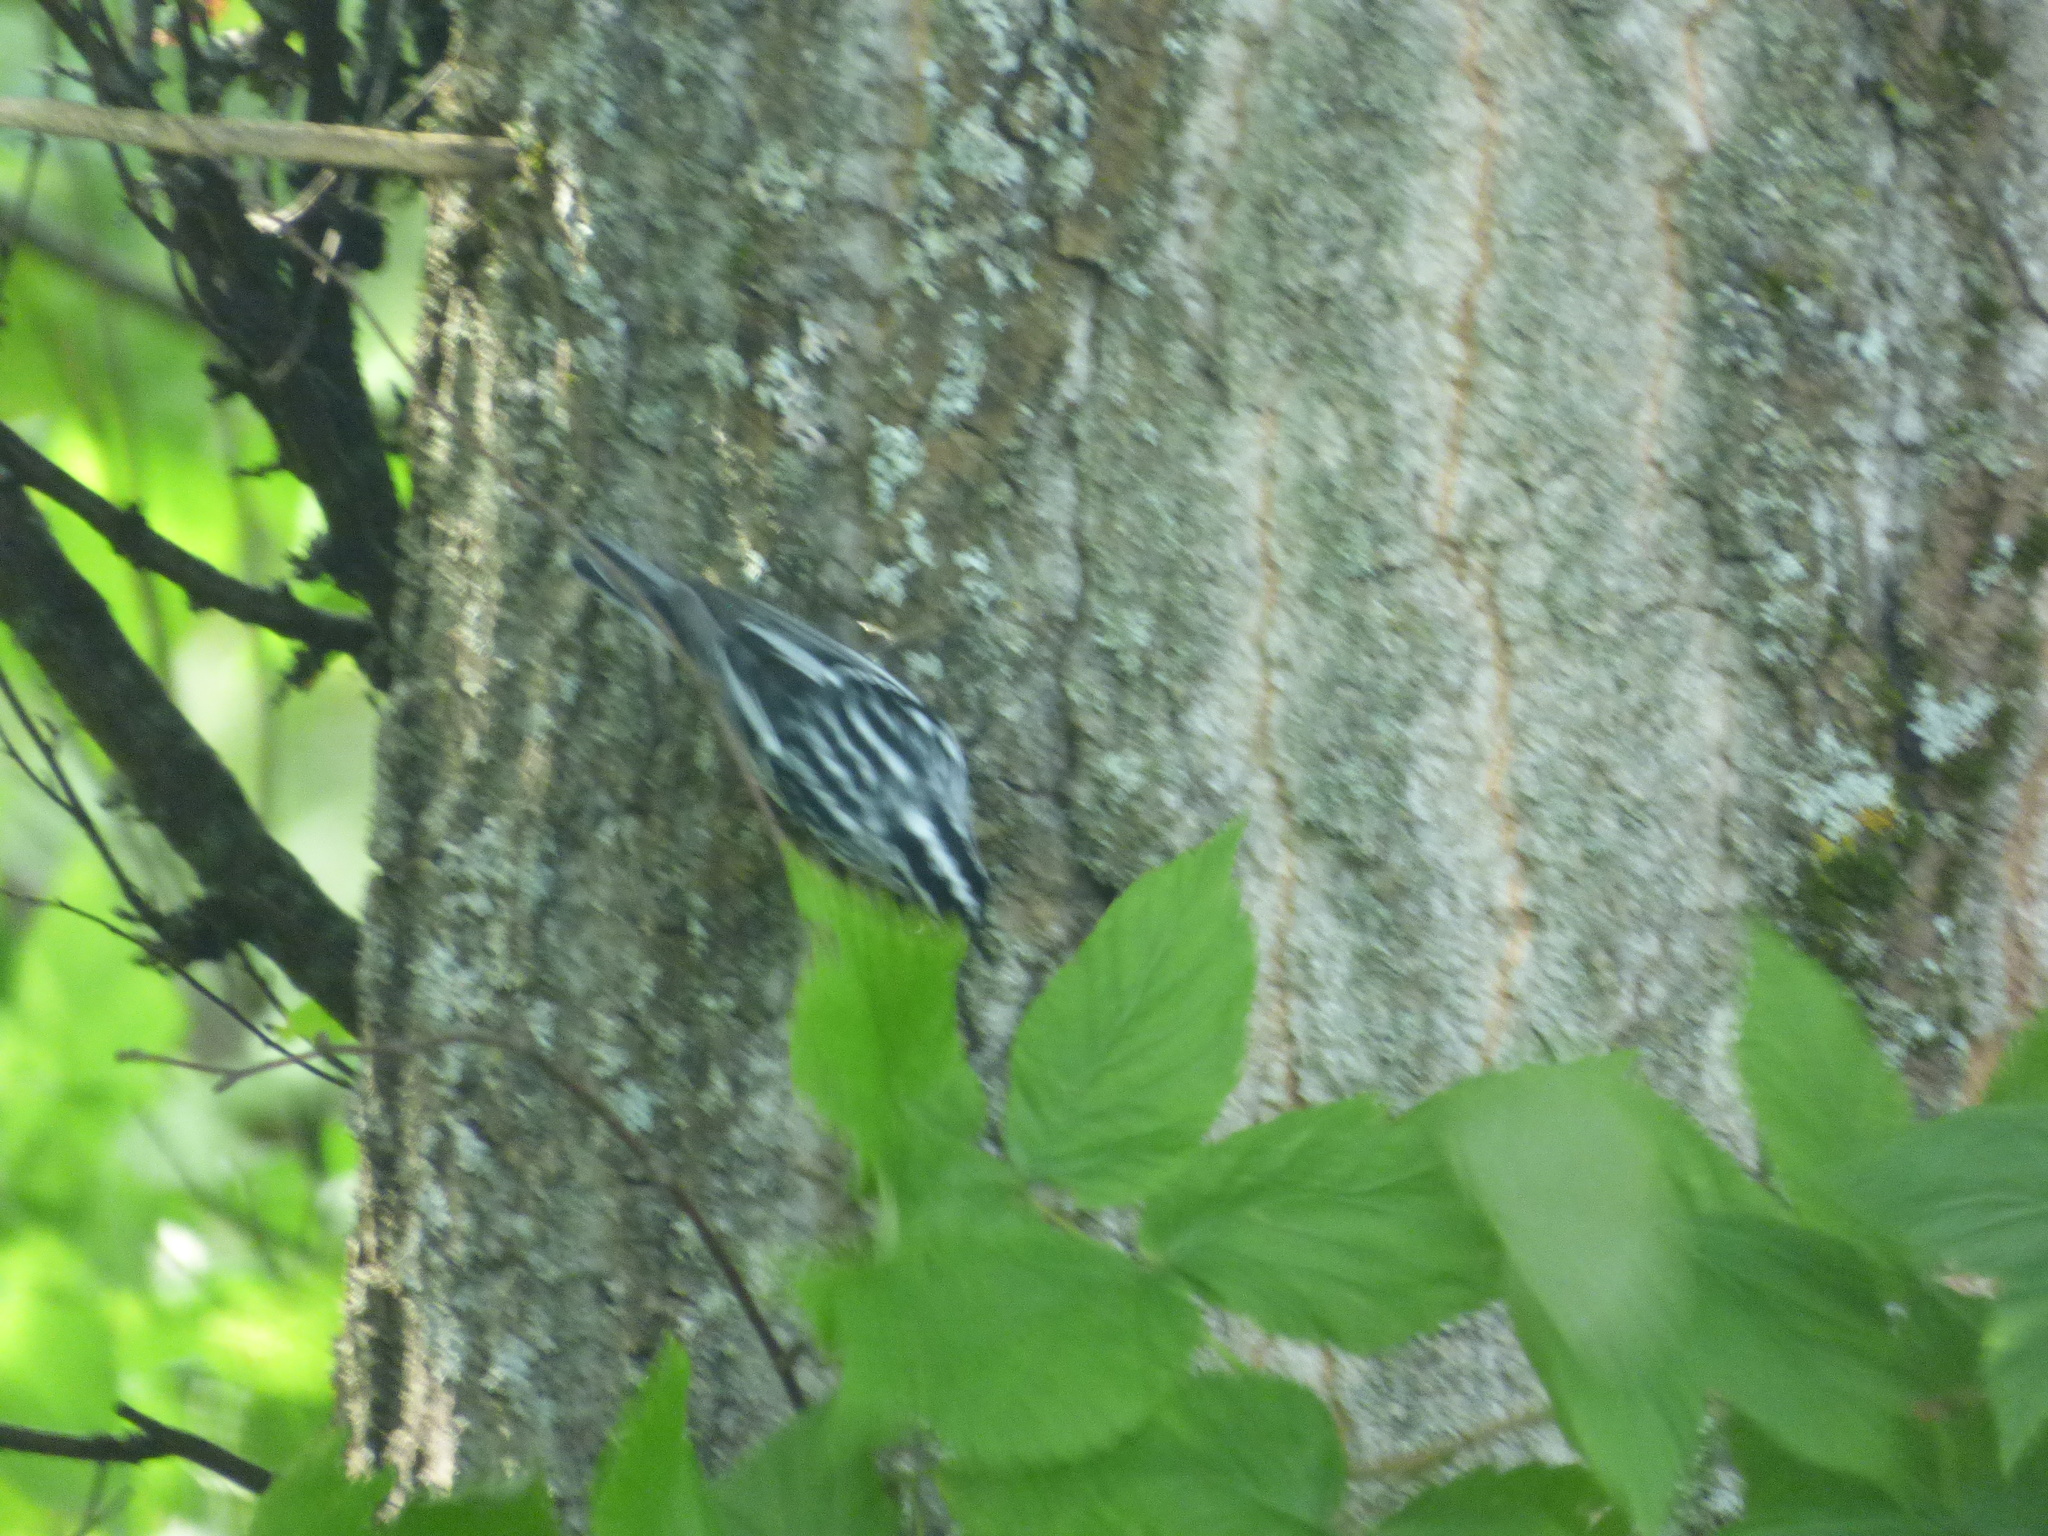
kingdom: Animalia
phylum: Chordata
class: Aves
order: Passeriformes
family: Parulidae
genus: Mniotilta
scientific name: Mniotilta varia
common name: Black-and-white warbler
